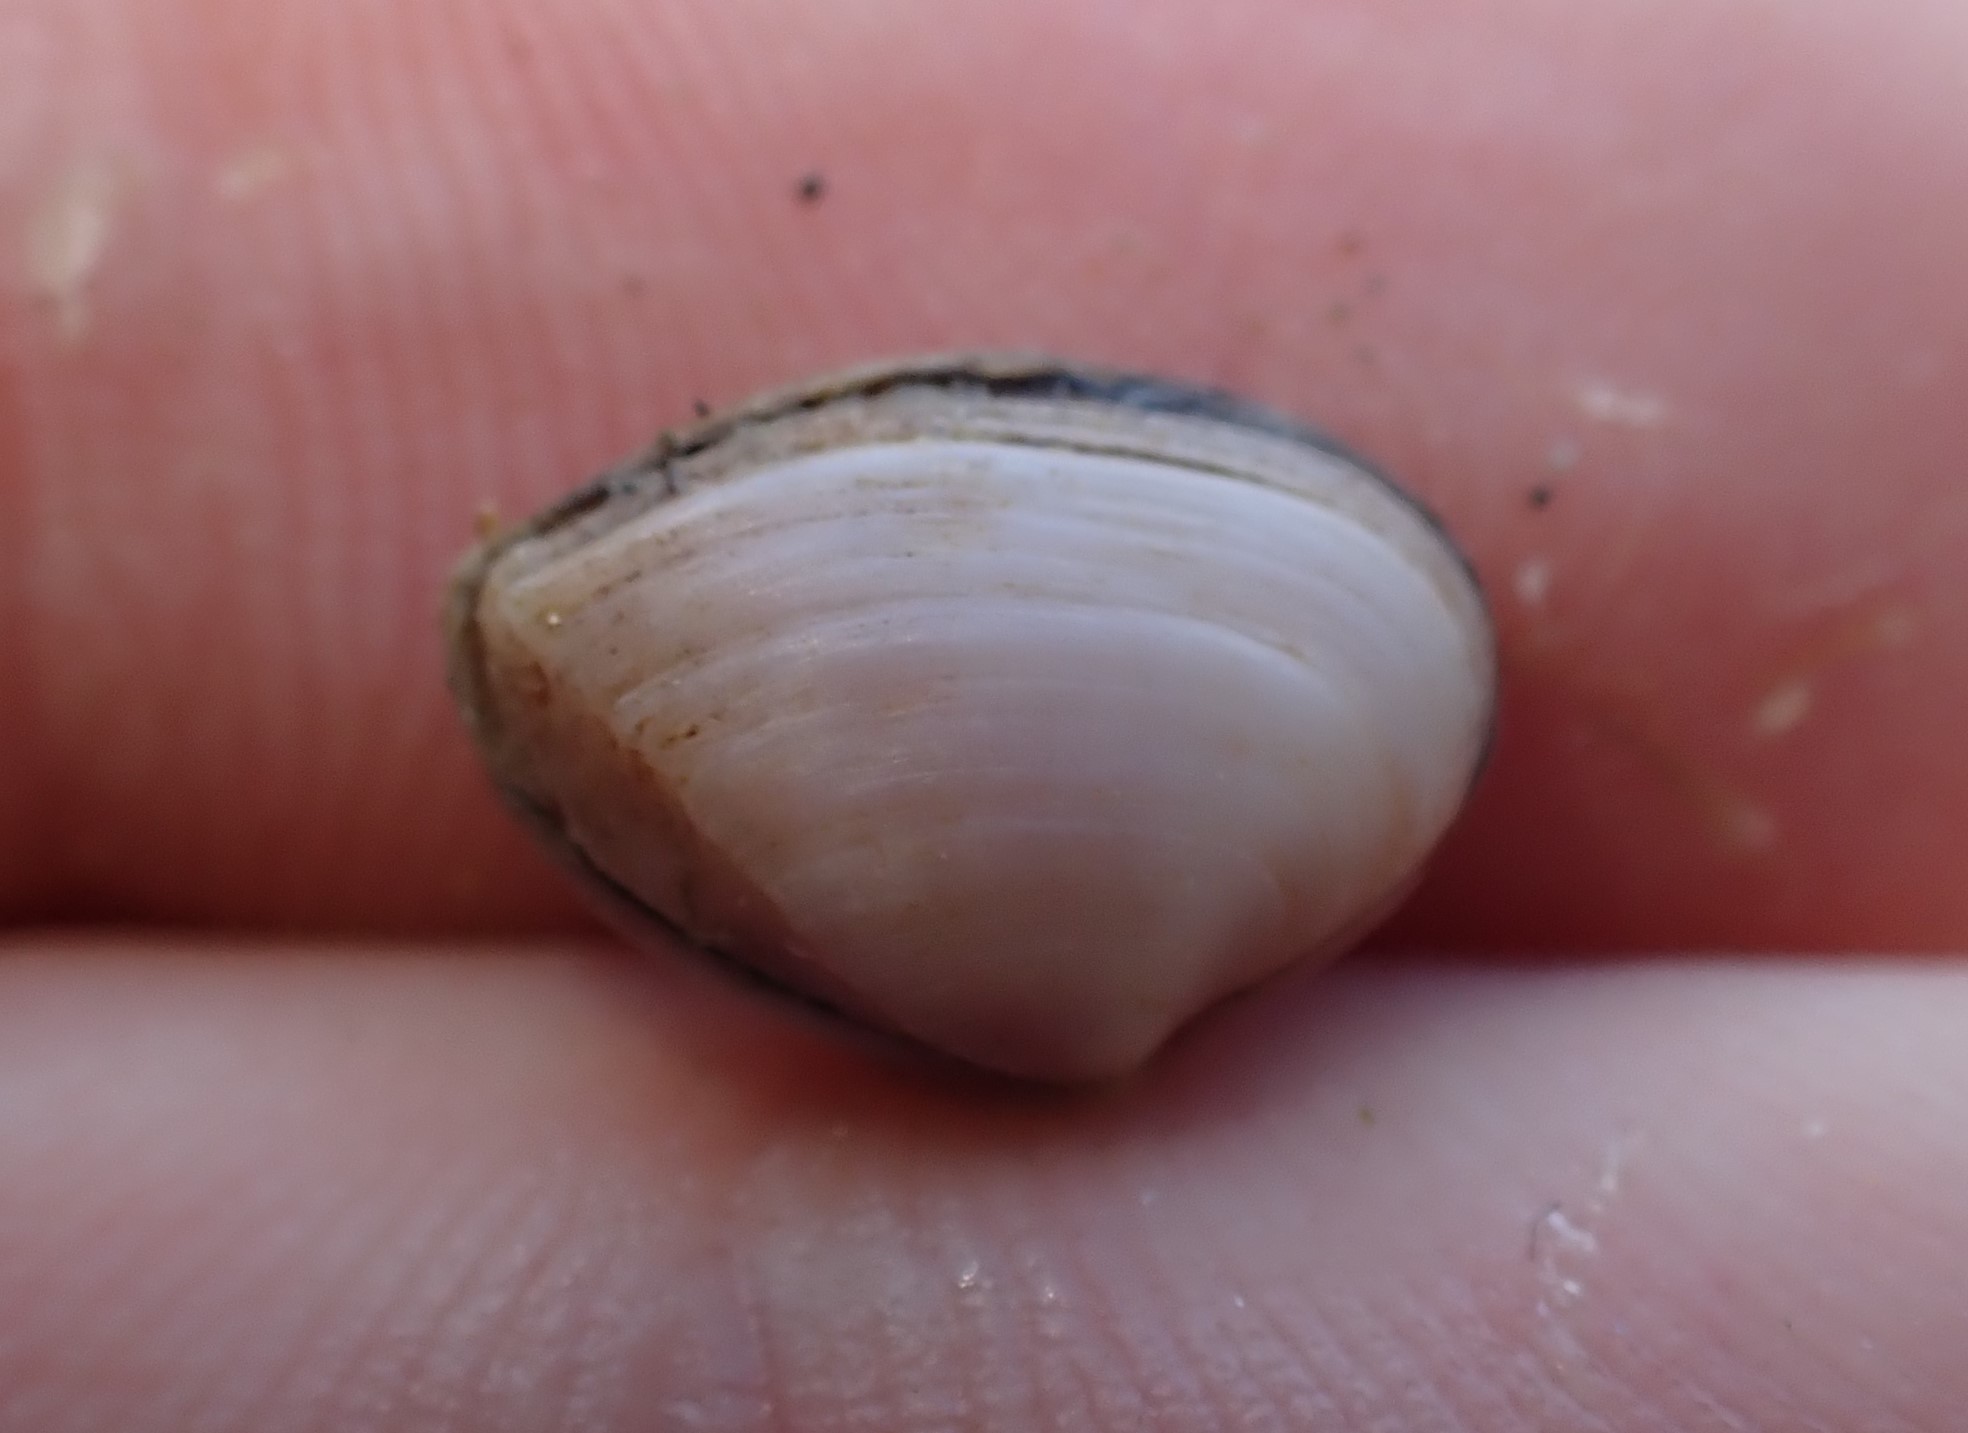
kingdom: Animalia
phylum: Mollusca
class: Bivalvia
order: Myida
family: Corbulidae
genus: Corbula
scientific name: Corbula zelandica
